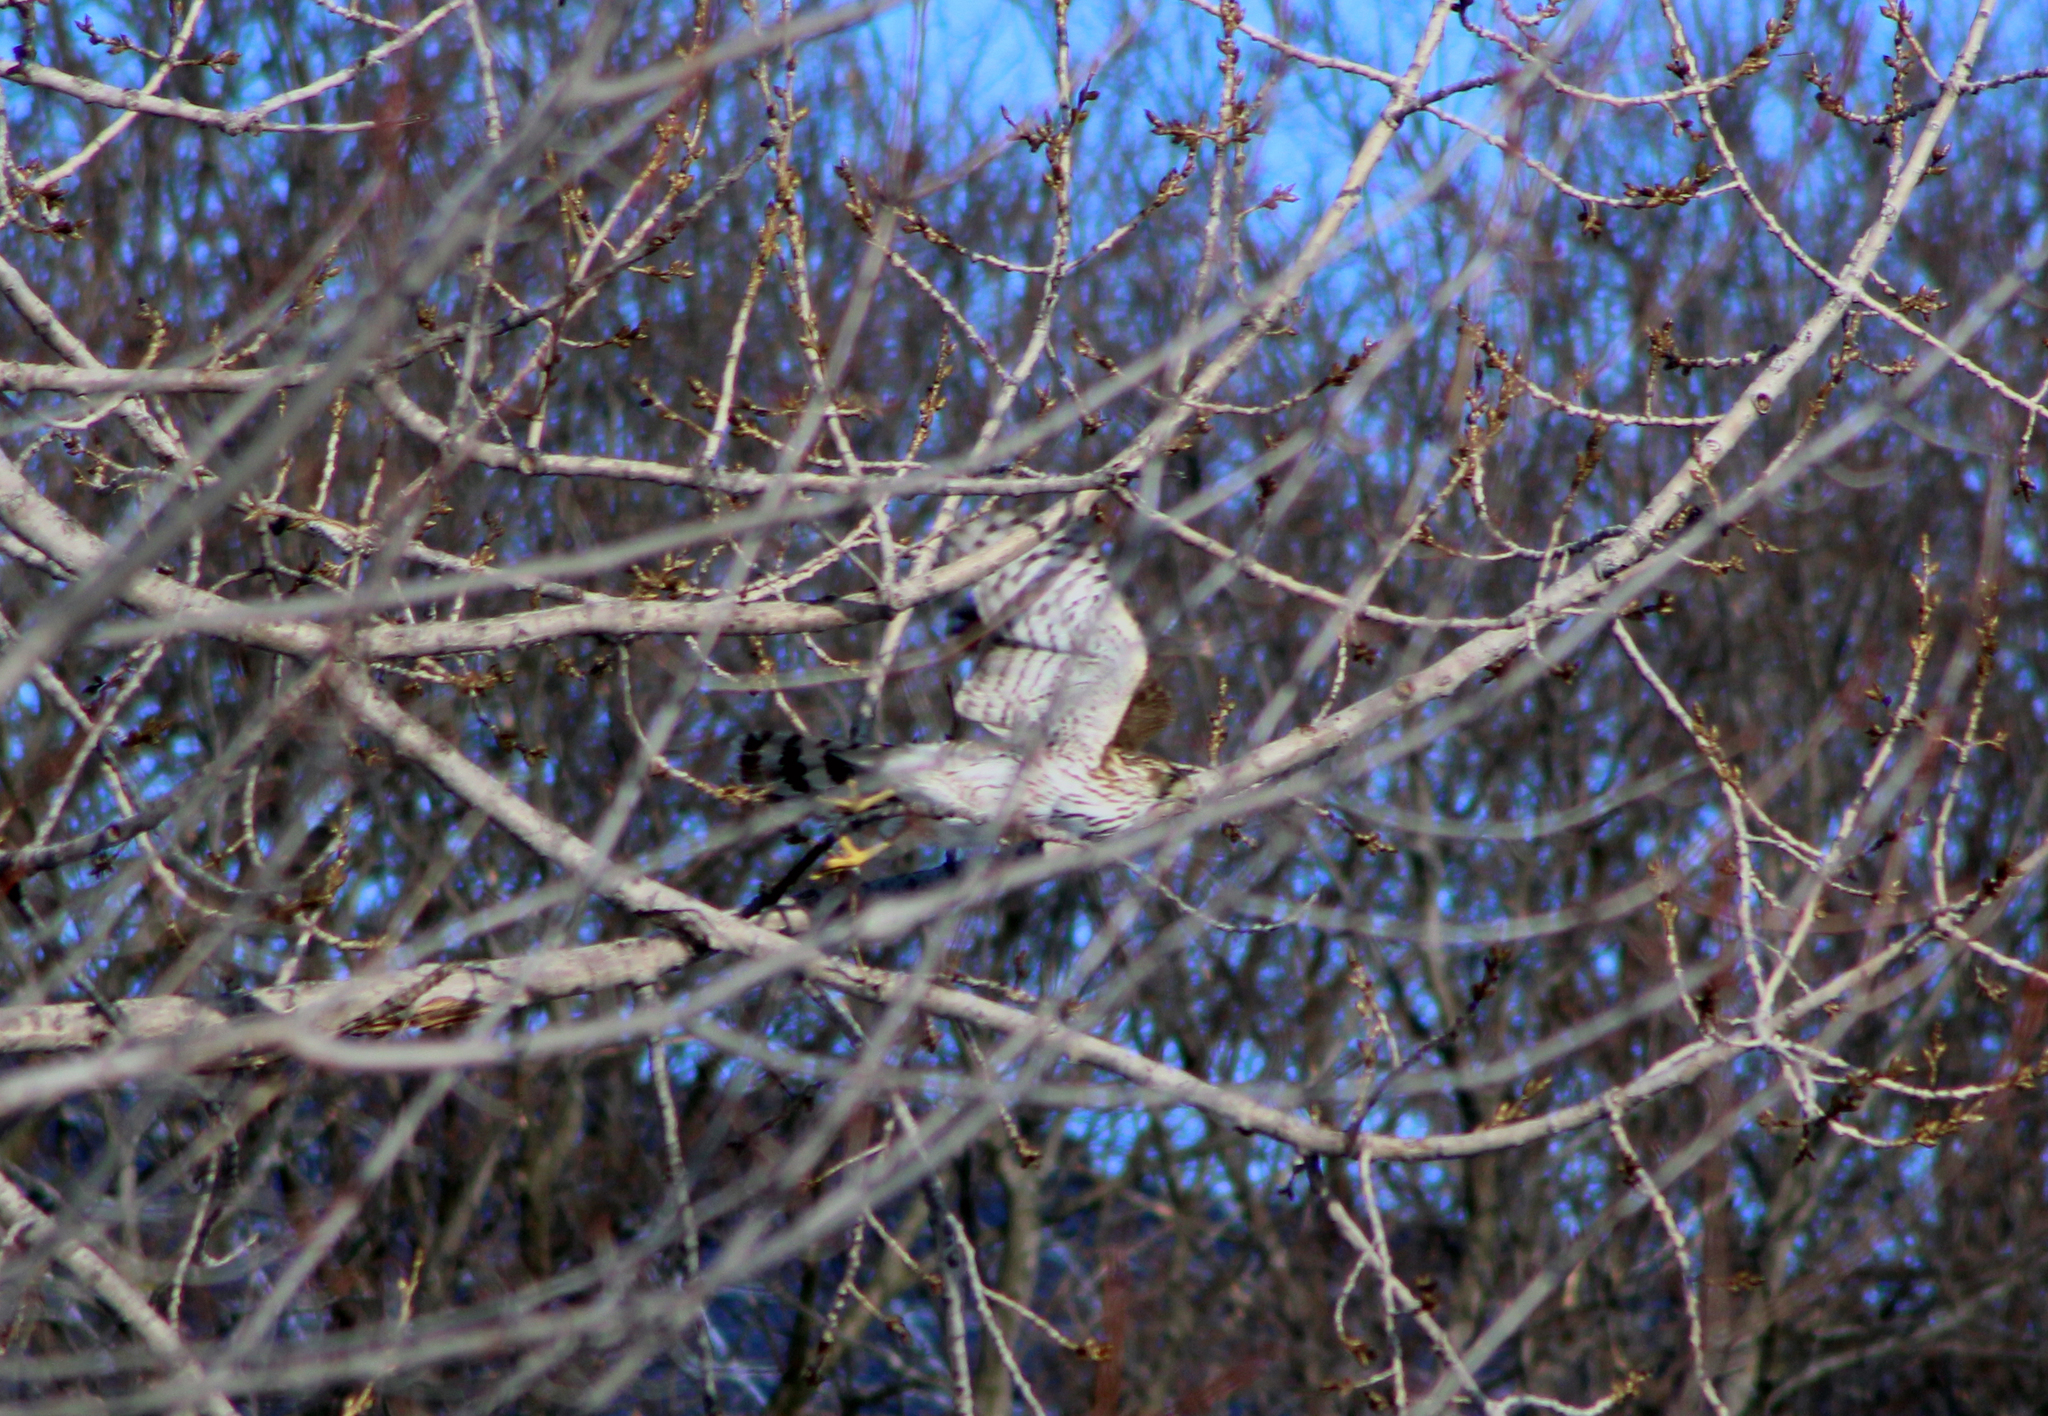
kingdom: Animalia
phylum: Chordata
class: Aves
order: Accipitriformes
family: Accipitridae
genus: Accipiter
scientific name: Accipiter cooperii
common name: Cooper's hawk
